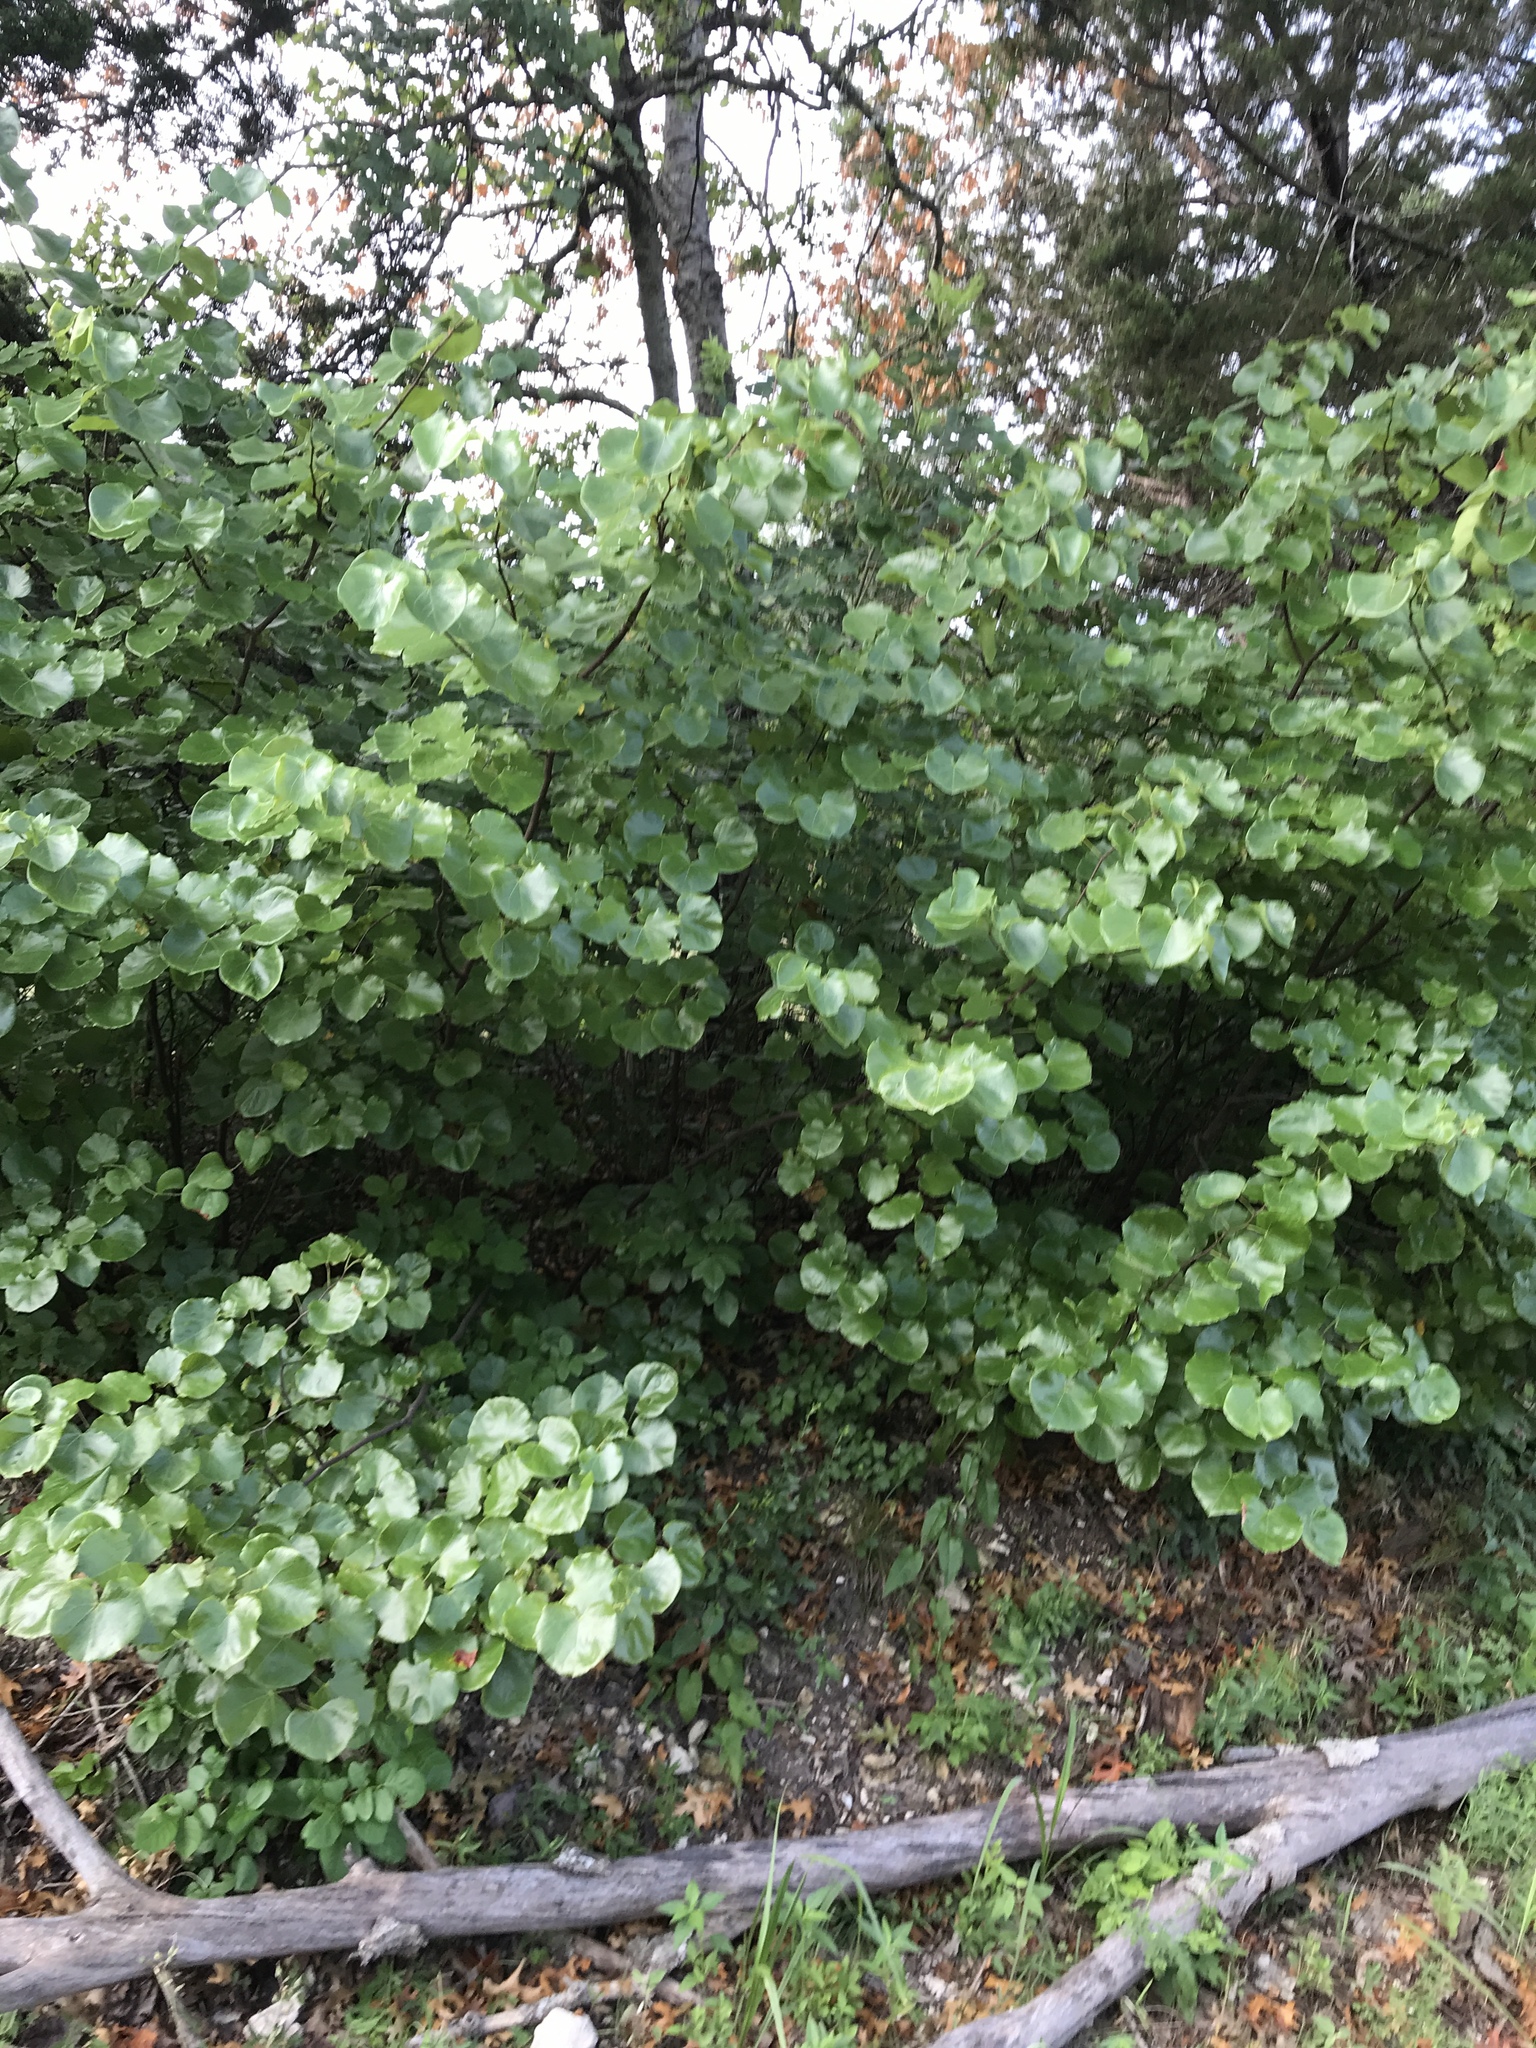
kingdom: Plantae
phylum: Tracheophyta
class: Magnoliopsida
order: Fabales
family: Fabaceae
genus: Cercis
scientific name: Cercis canadensis
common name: Eastern redbud
